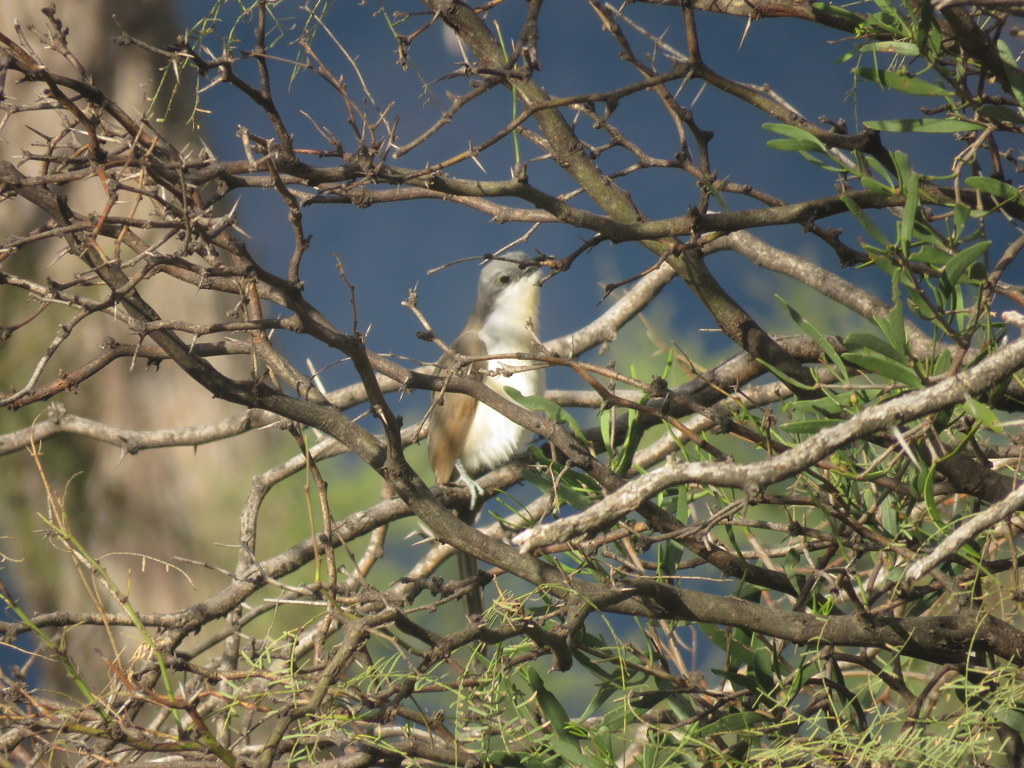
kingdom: Animalia
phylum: Chordata
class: Aves
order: Cuculiformes
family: Cuculidae
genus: Coccyzus
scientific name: Coccyzus melacoryphus
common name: Dark-billed cuckoo
